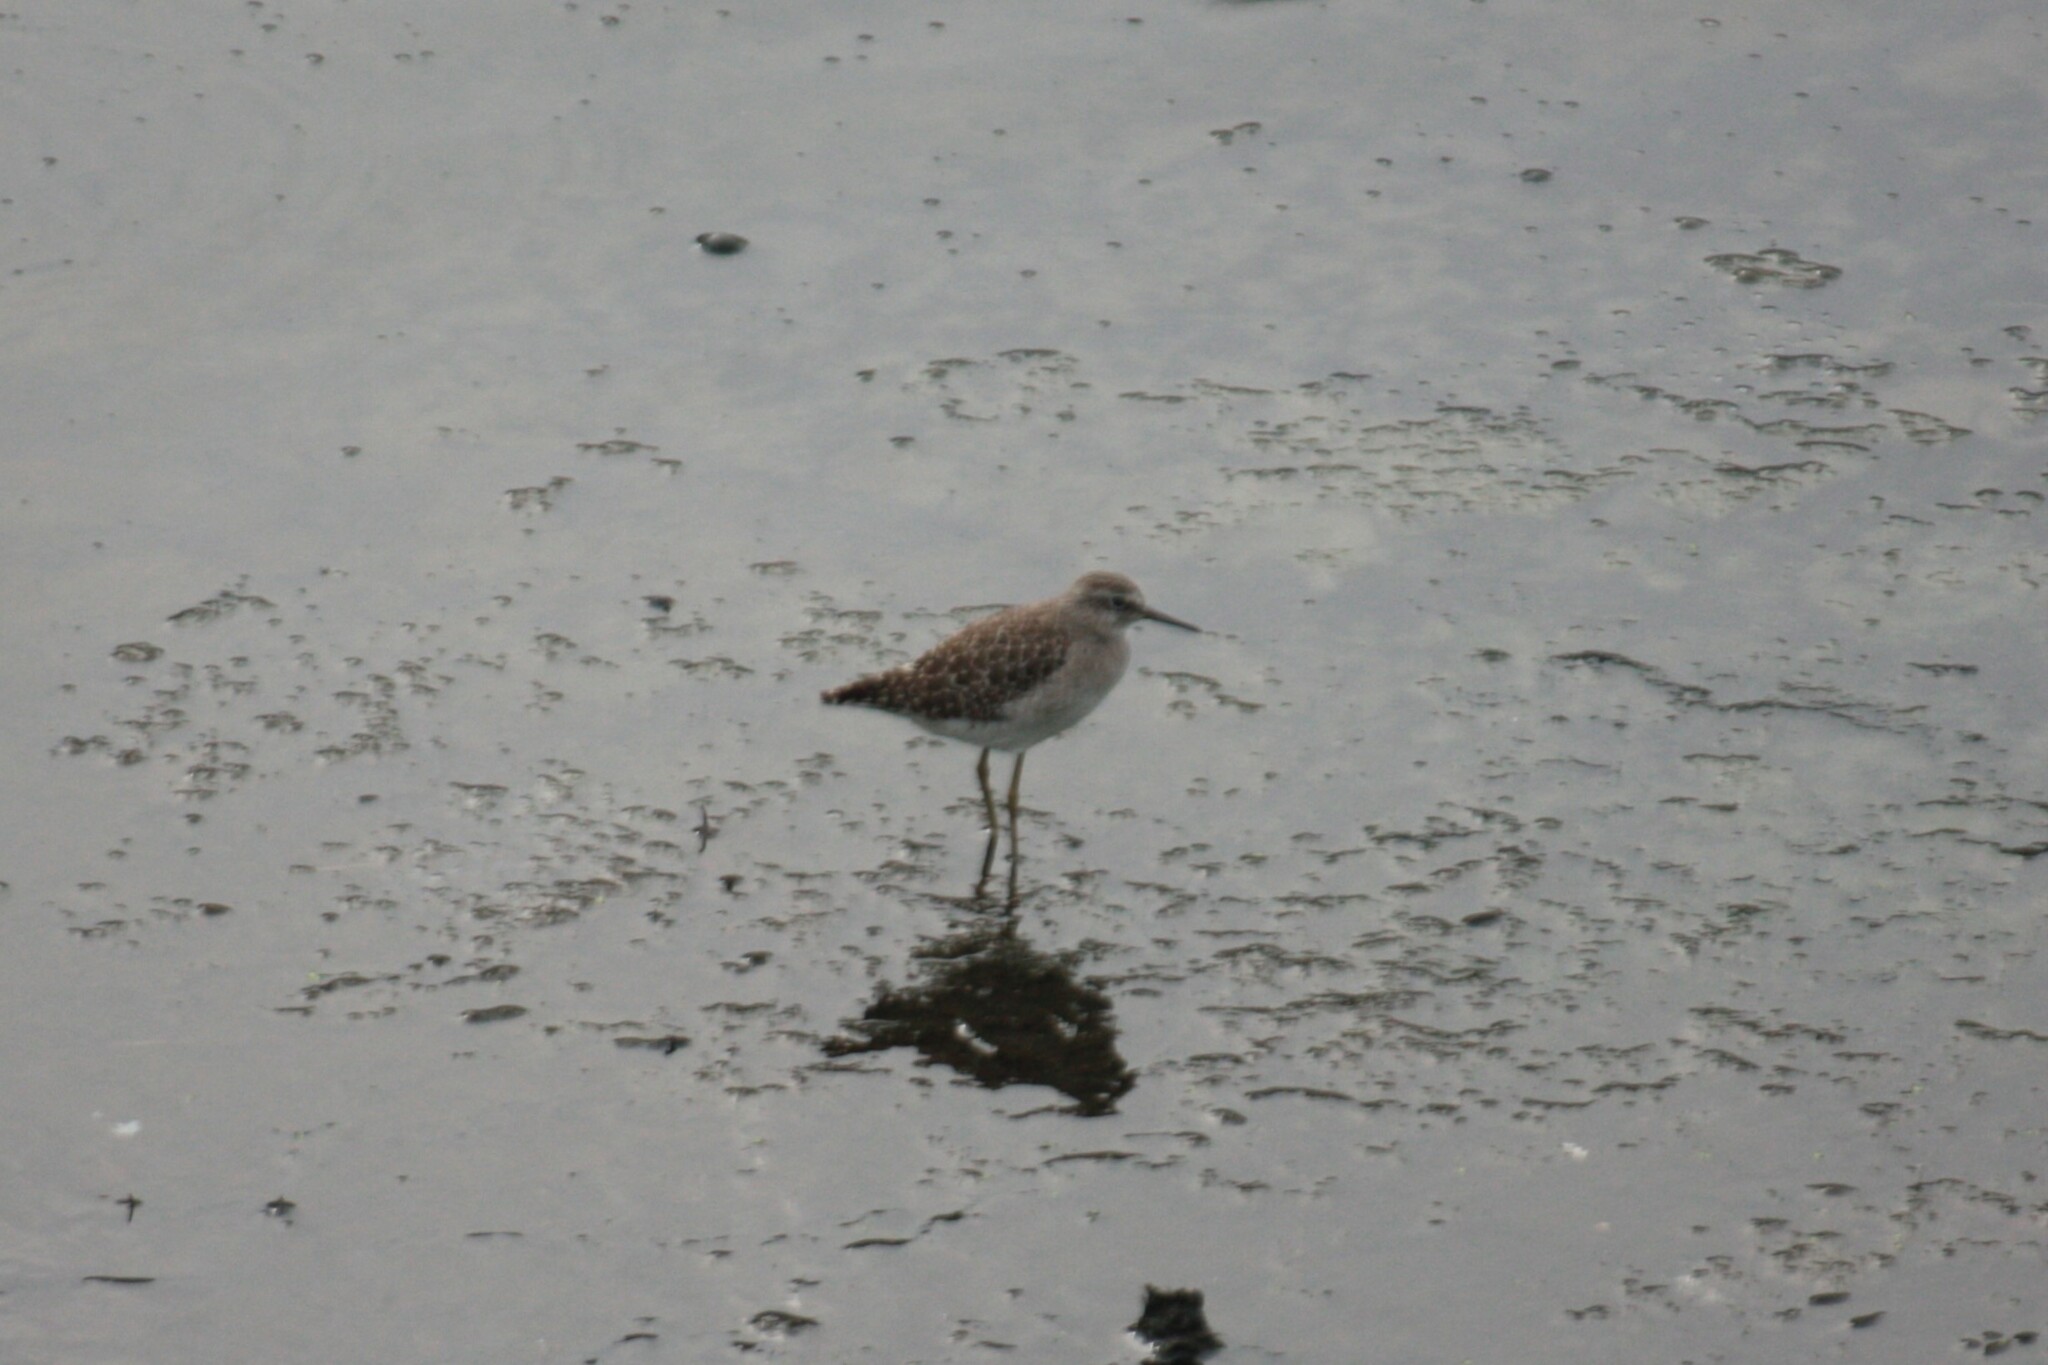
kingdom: Animalia
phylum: Chordata
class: Aves
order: Charadriiformes
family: Scolopacidae
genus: Tringa
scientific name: Tringa glareola
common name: Wood sandpiper
